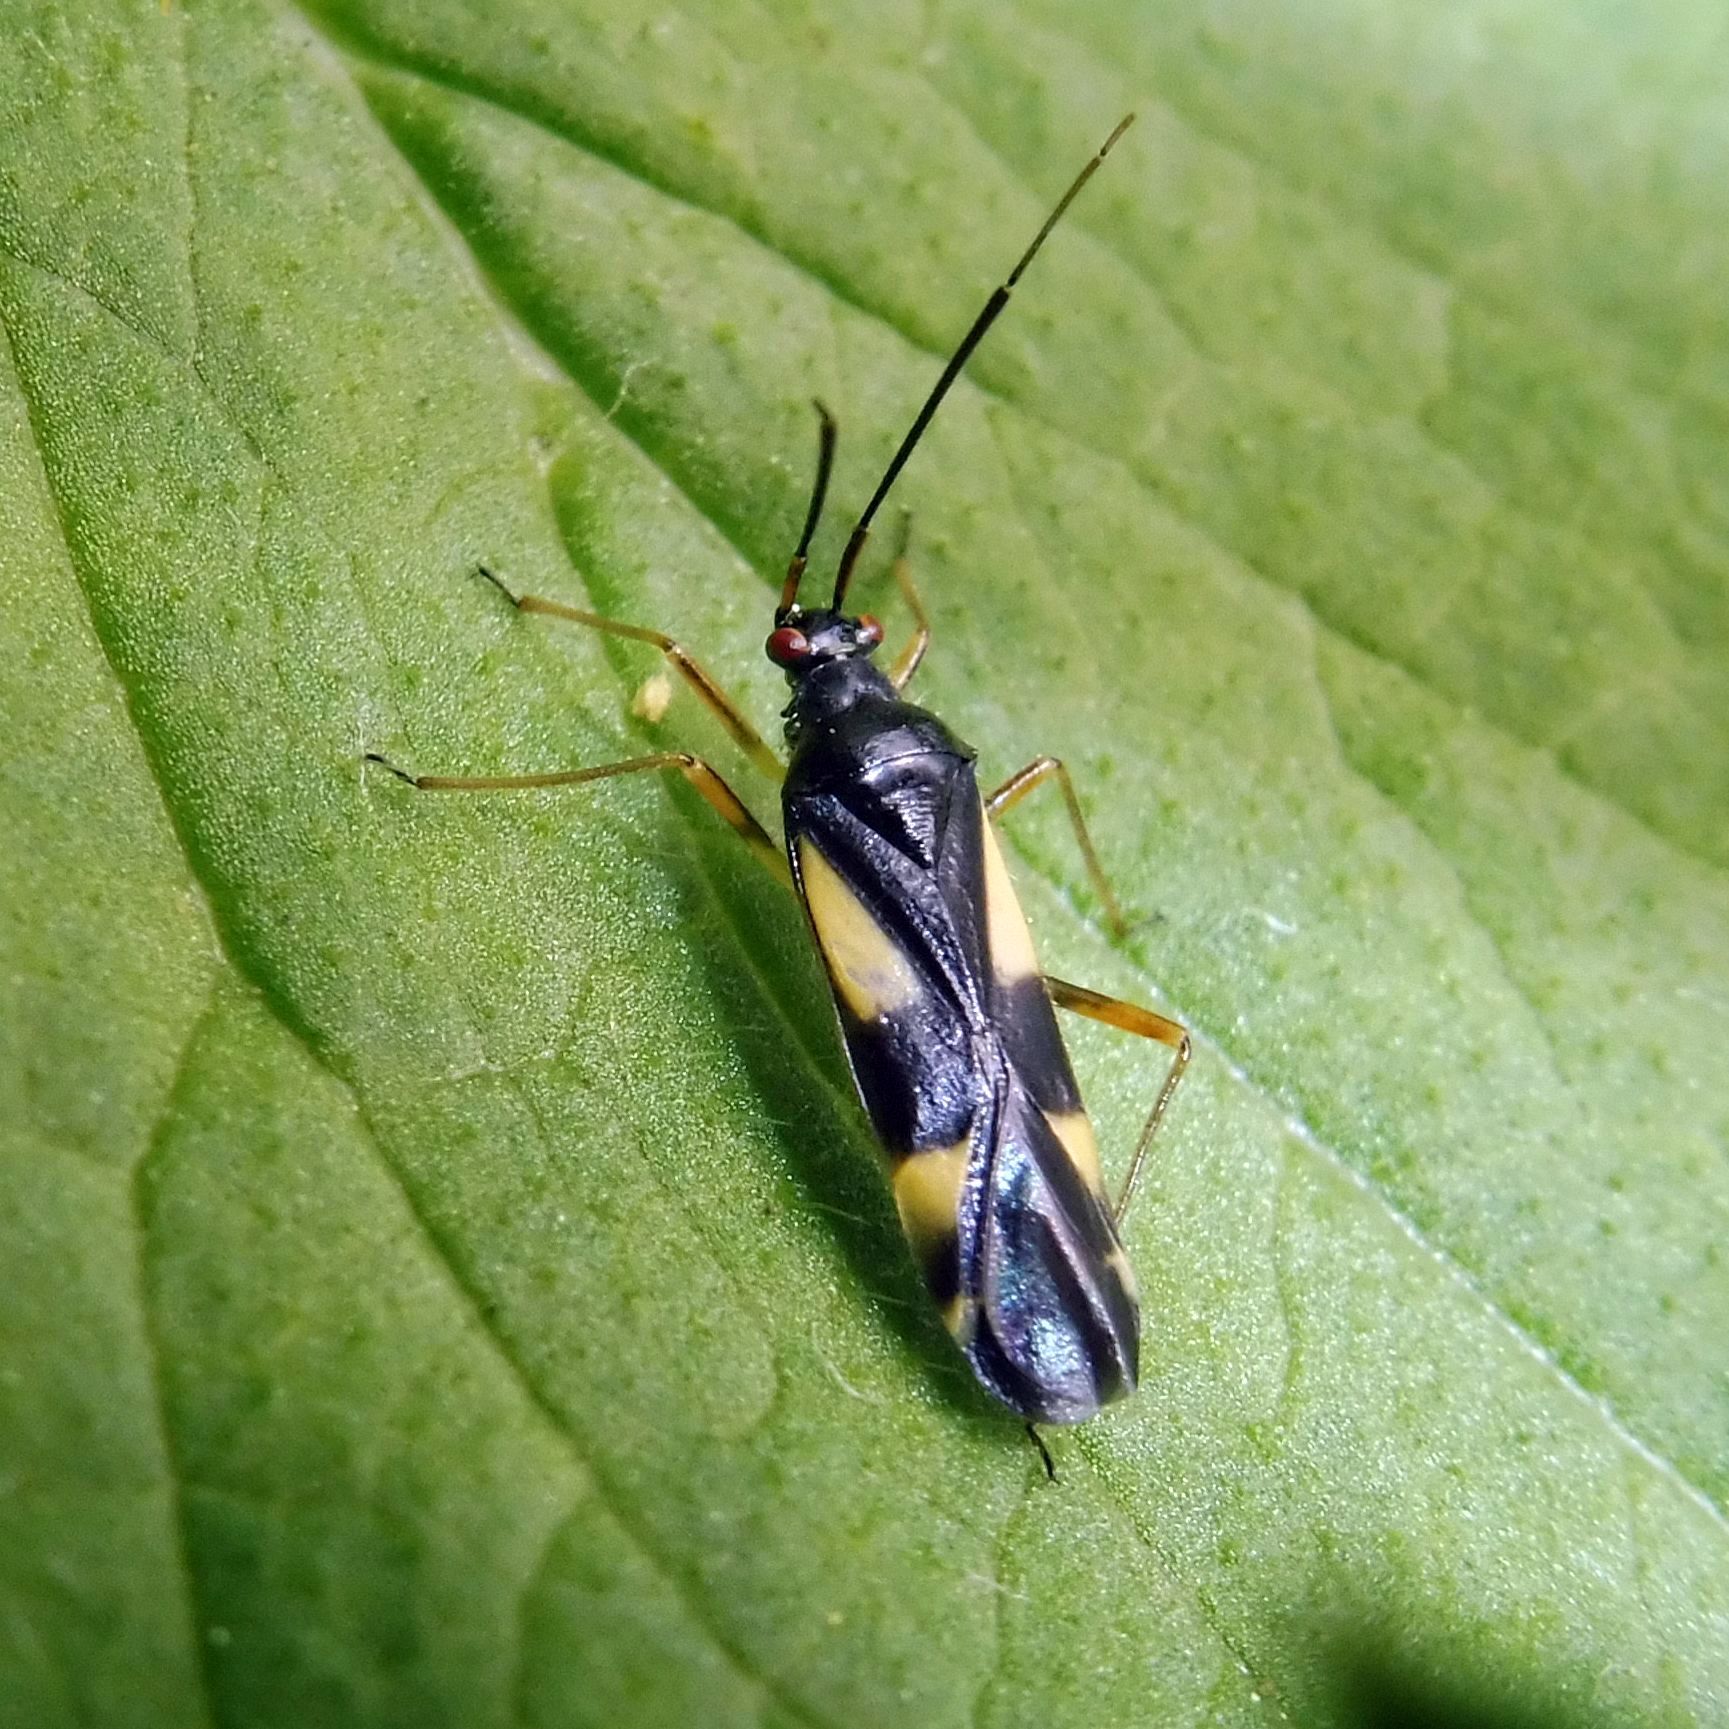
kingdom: Animalia
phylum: Arthropoda
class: Insecta
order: Hemiptera
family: Miridae
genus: Dryophilocoris
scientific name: Dryophilocoris flavoquadrimaculatus
